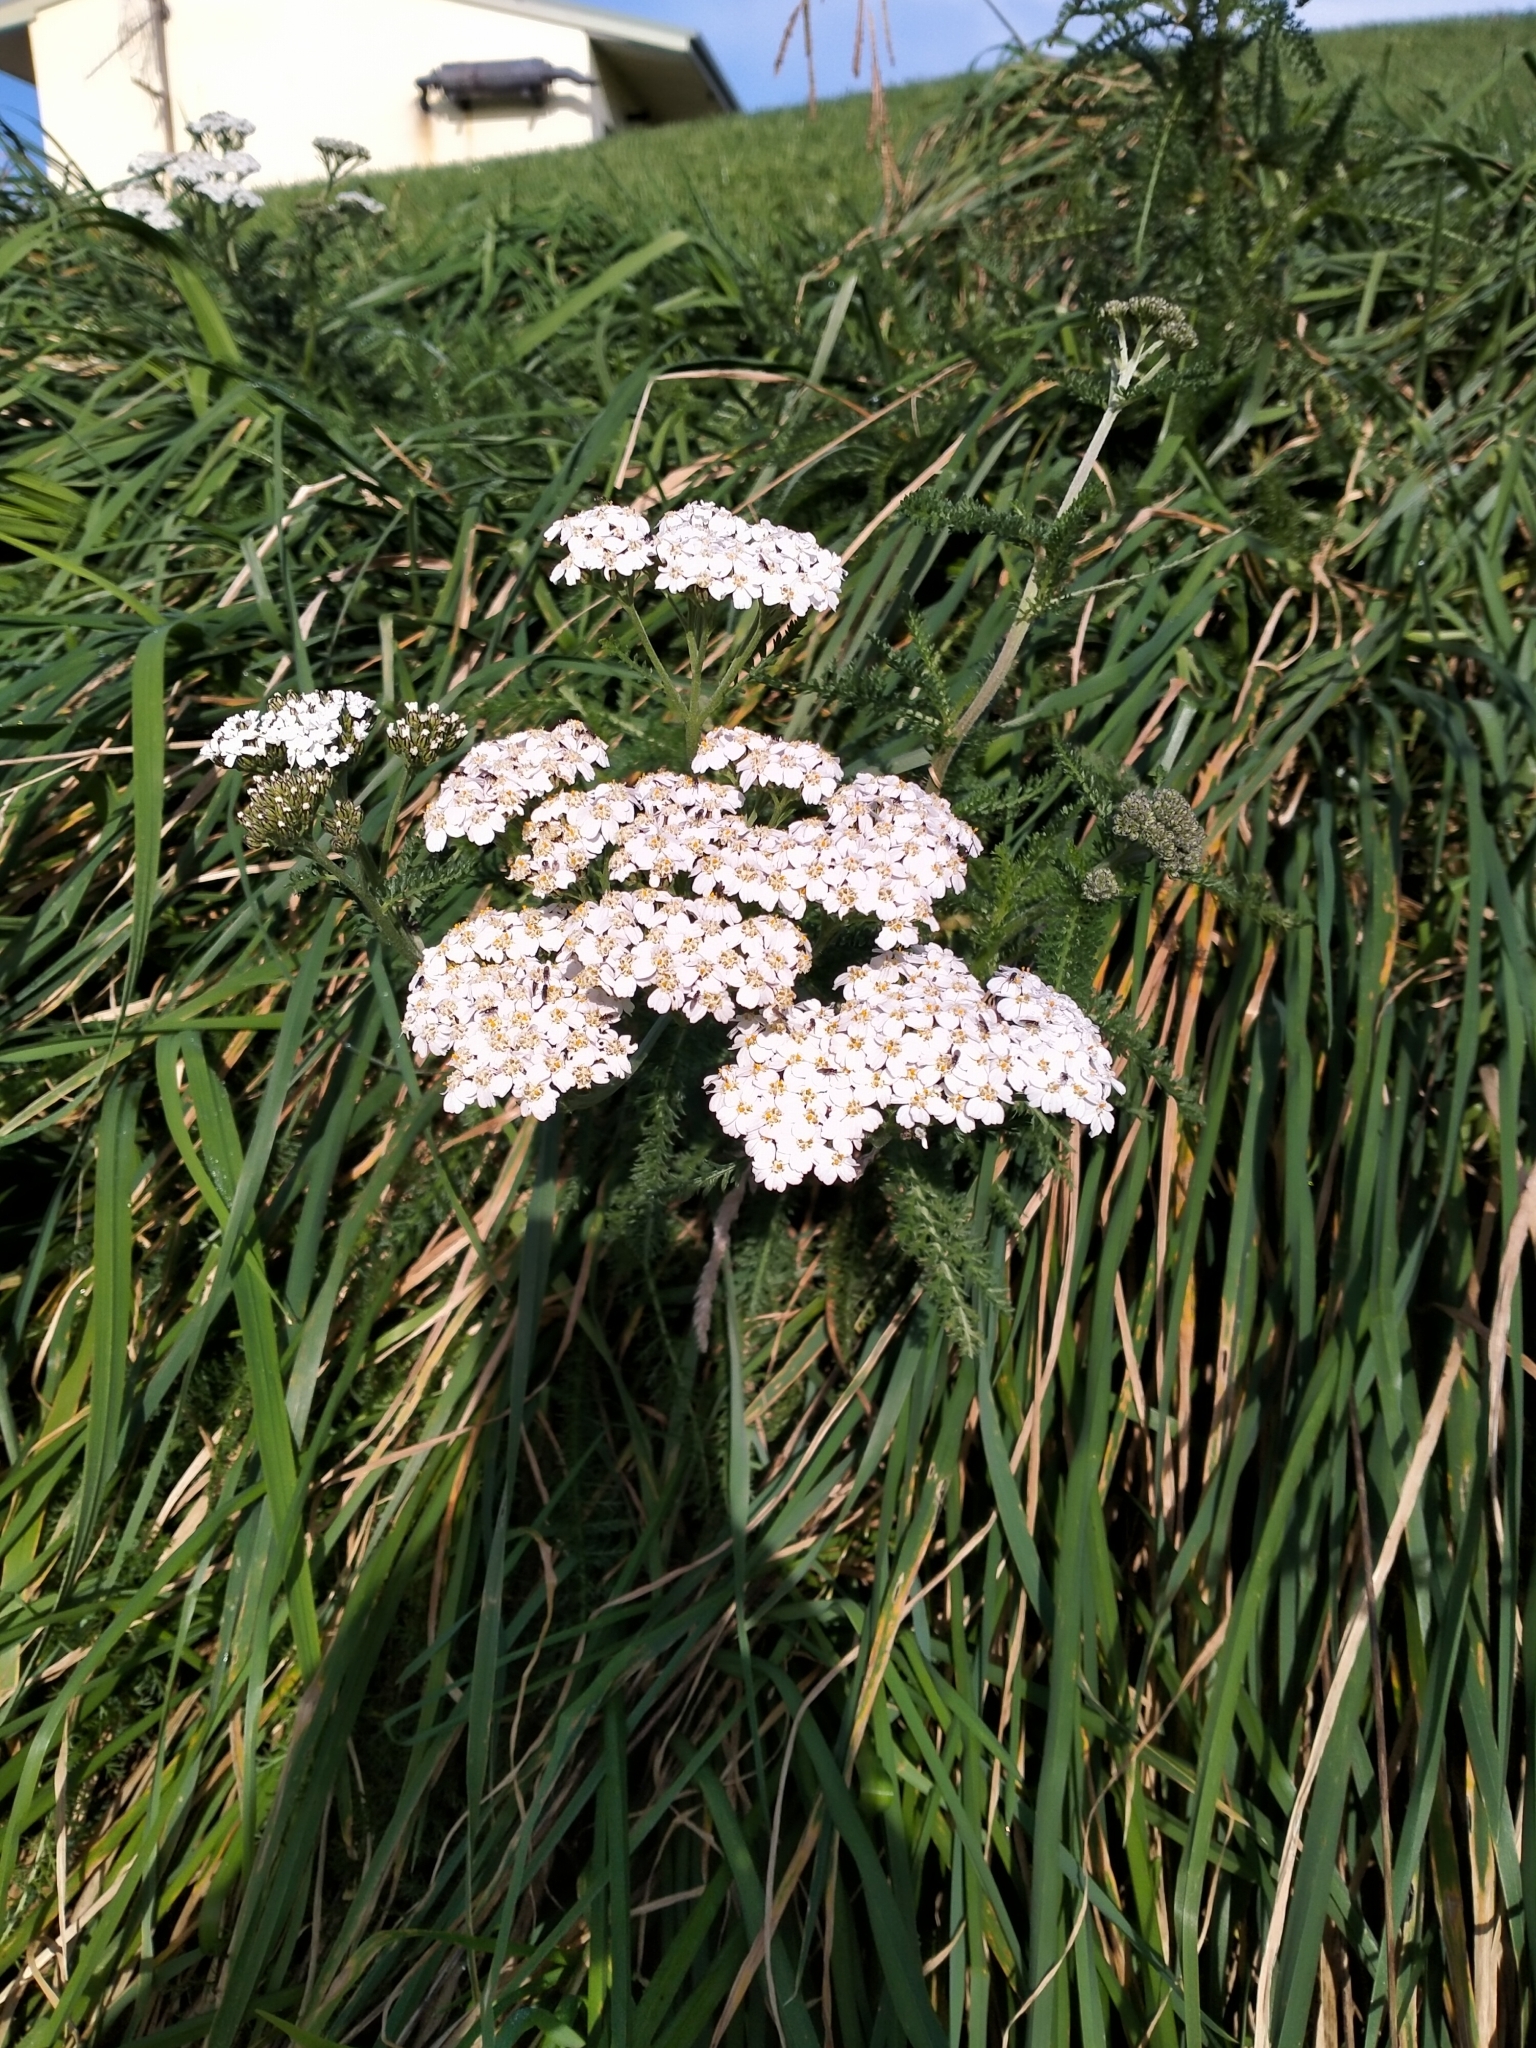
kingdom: Plantae
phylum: Tracheophyta
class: Magnoliopsida
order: Asterales
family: Asteraceae
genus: Achillea
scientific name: Achillea millefolium
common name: Yarrow
